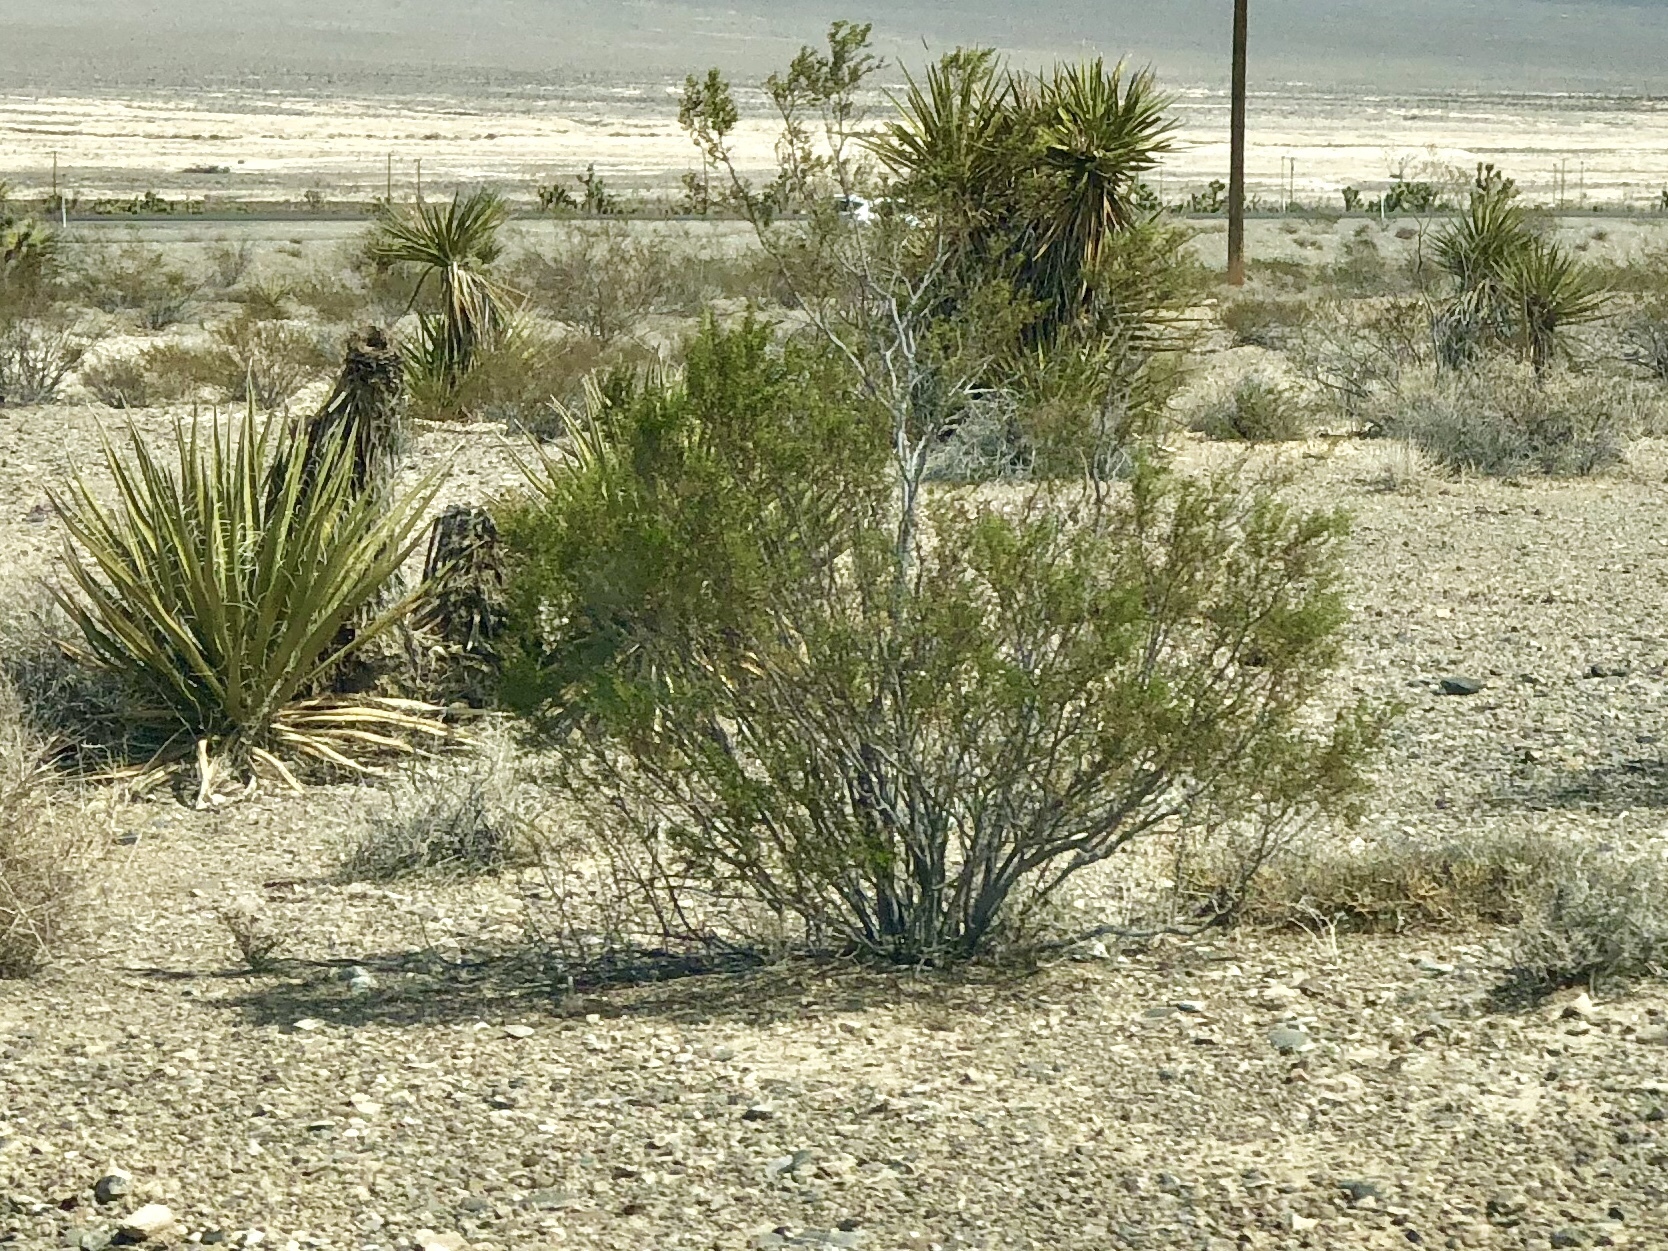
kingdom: Plantae
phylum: Tracheophyta
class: Magnoliopsida
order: Zygophyllales
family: Zygophyllaceae
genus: Larrea
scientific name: Larrea tridentata
